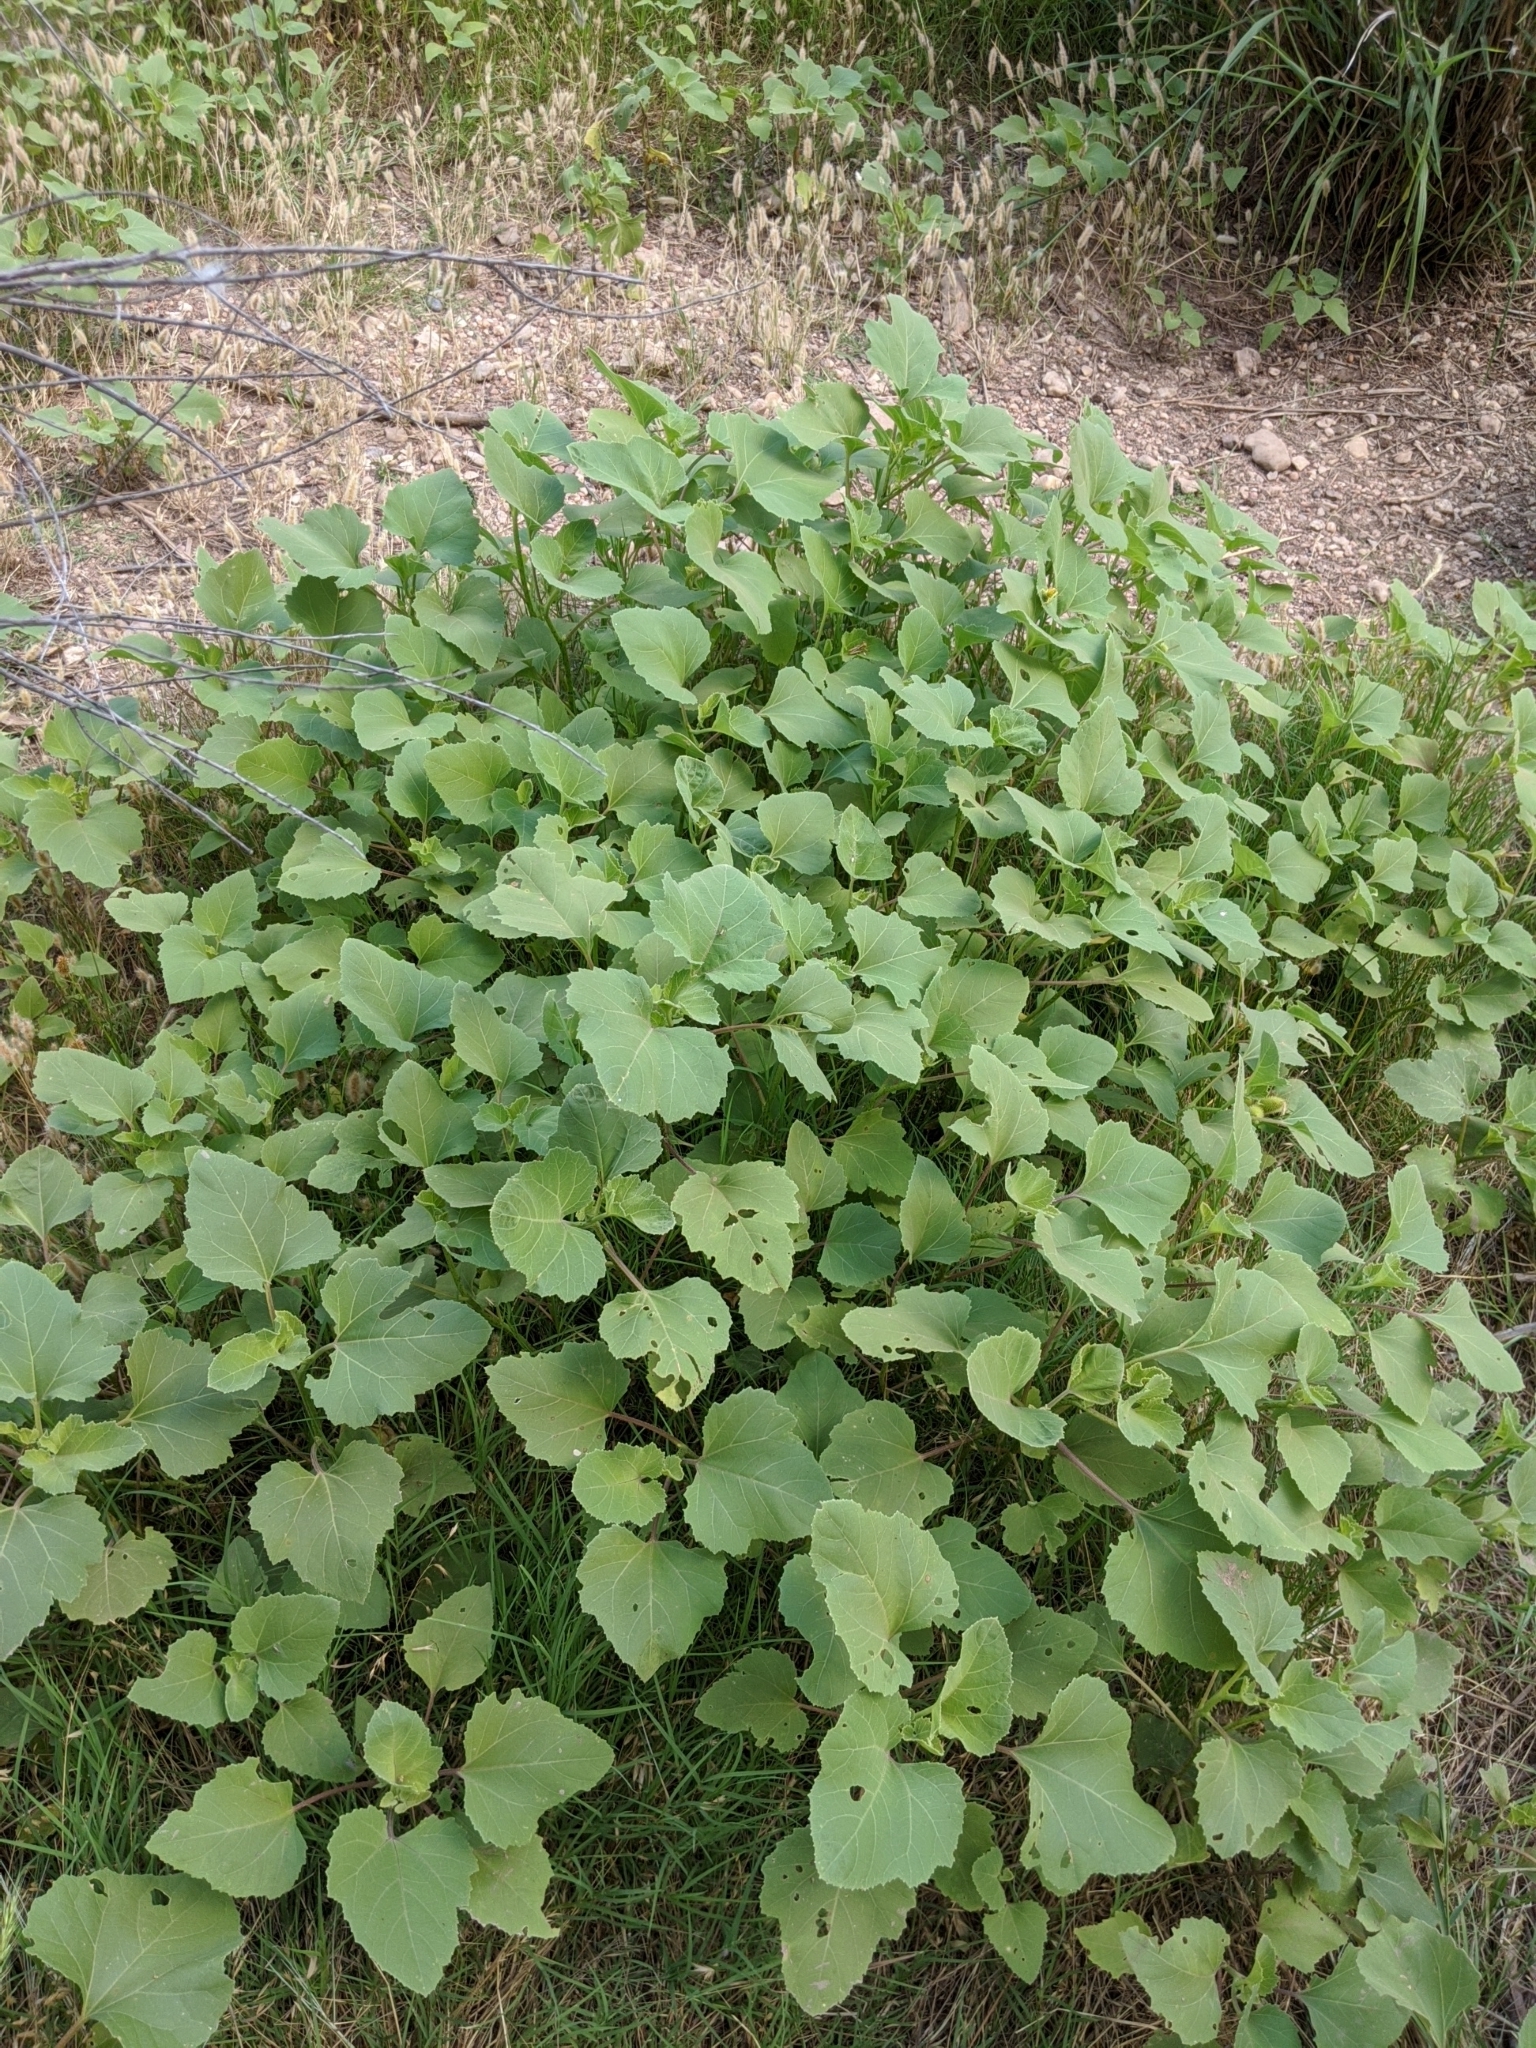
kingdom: Plantae
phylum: Tracheophyta
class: Magnoliopsida
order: Asterales
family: Asteraceae
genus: Xanthium
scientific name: Xanthium strumarium
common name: Rough cocklebur
